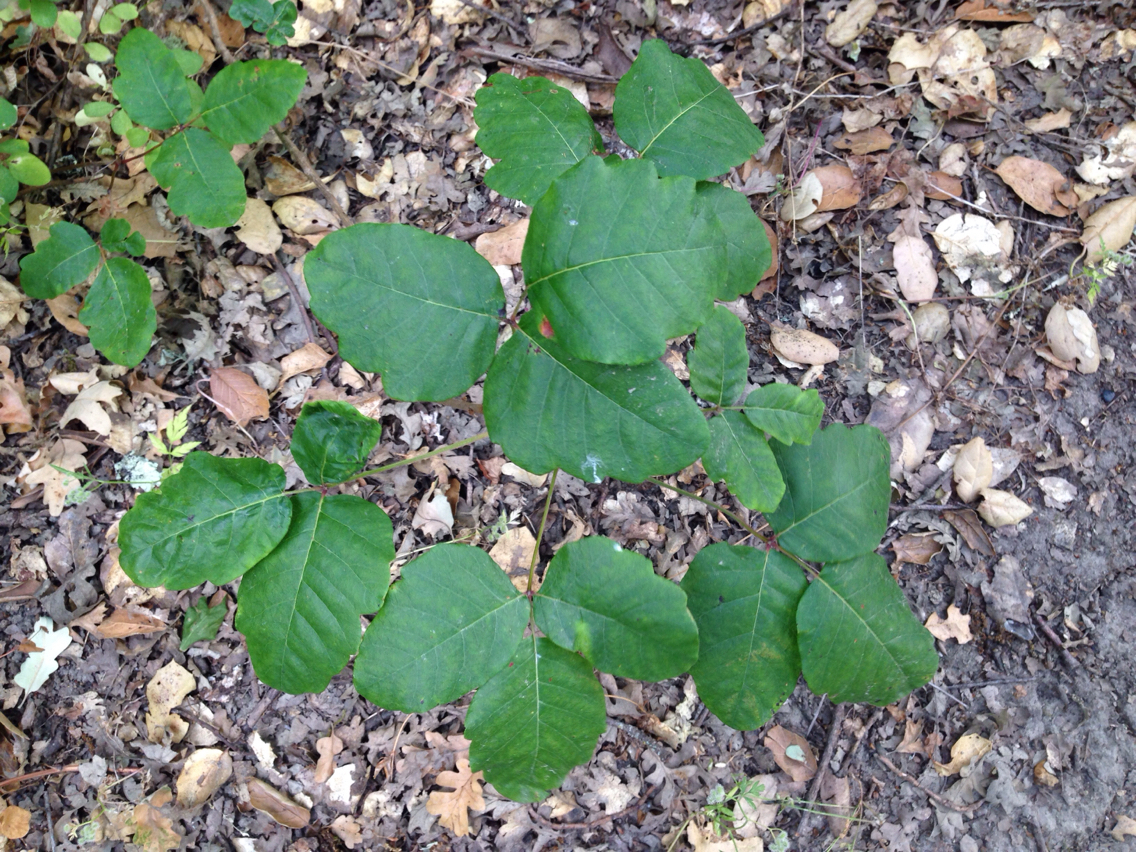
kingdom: Plantae
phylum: Tracheophyta
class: Magnoliopsida
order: Sapindales
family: Anacardiaceae
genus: Toxicodendron
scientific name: Toxicodendron diversilobum
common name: Pacific poison-oak
